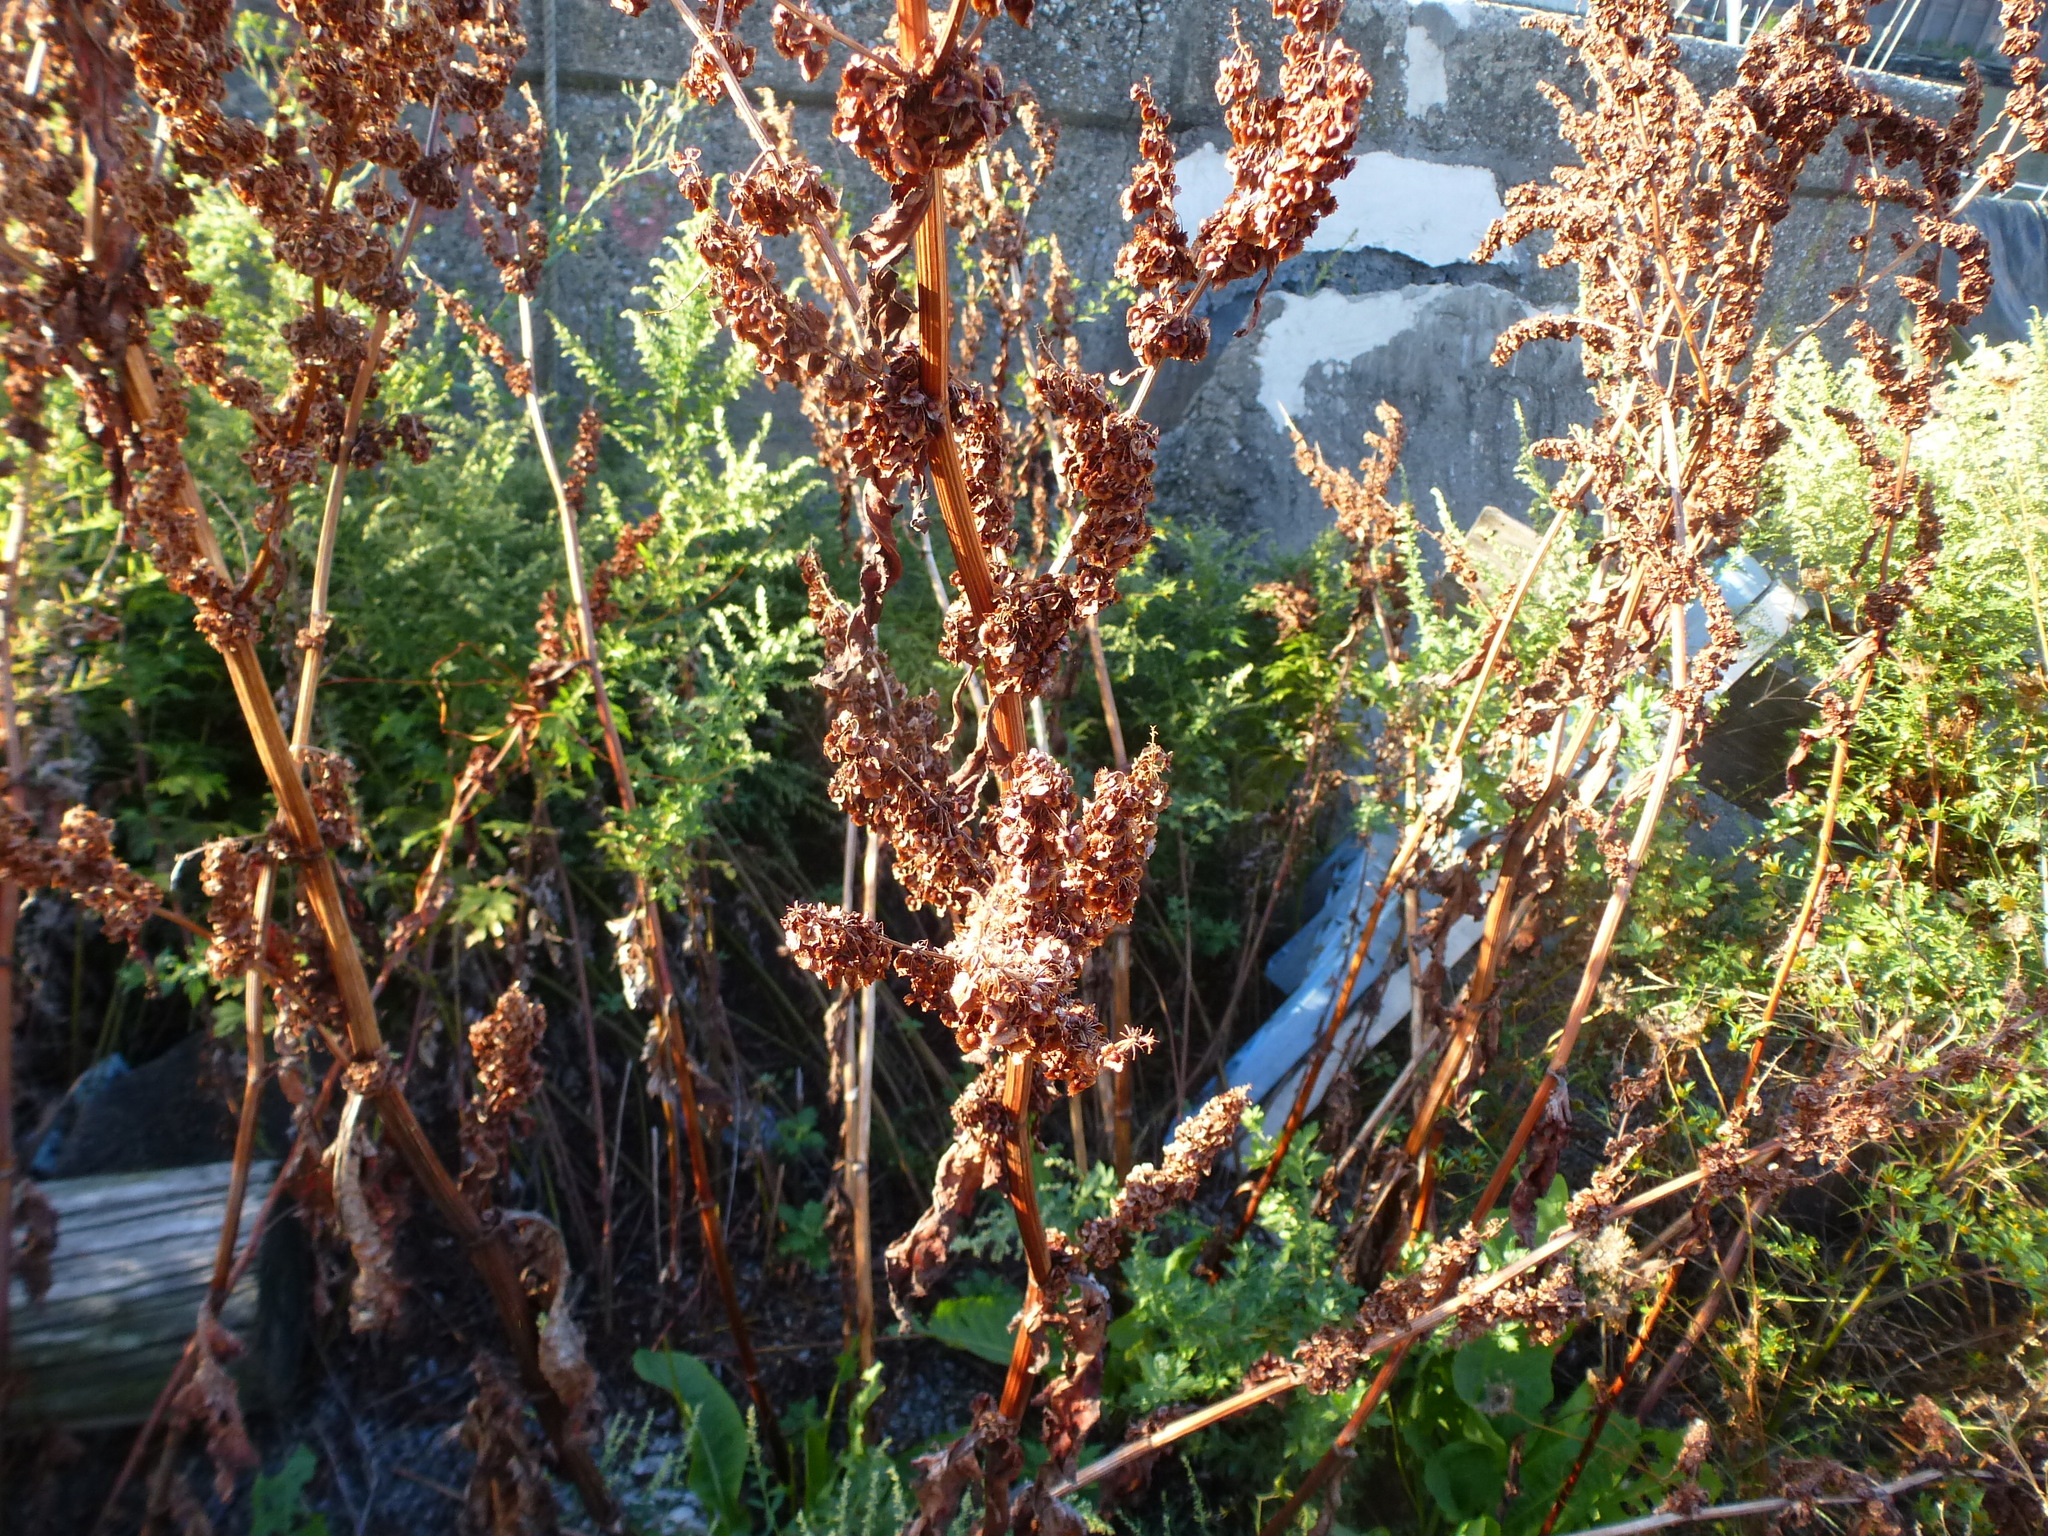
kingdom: Plantae
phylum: Tracheophyta
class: Magnoliopsida
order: Caryophyllales
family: Polygonaceae
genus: Rumex
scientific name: Rumex crispus
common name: Curled dock
